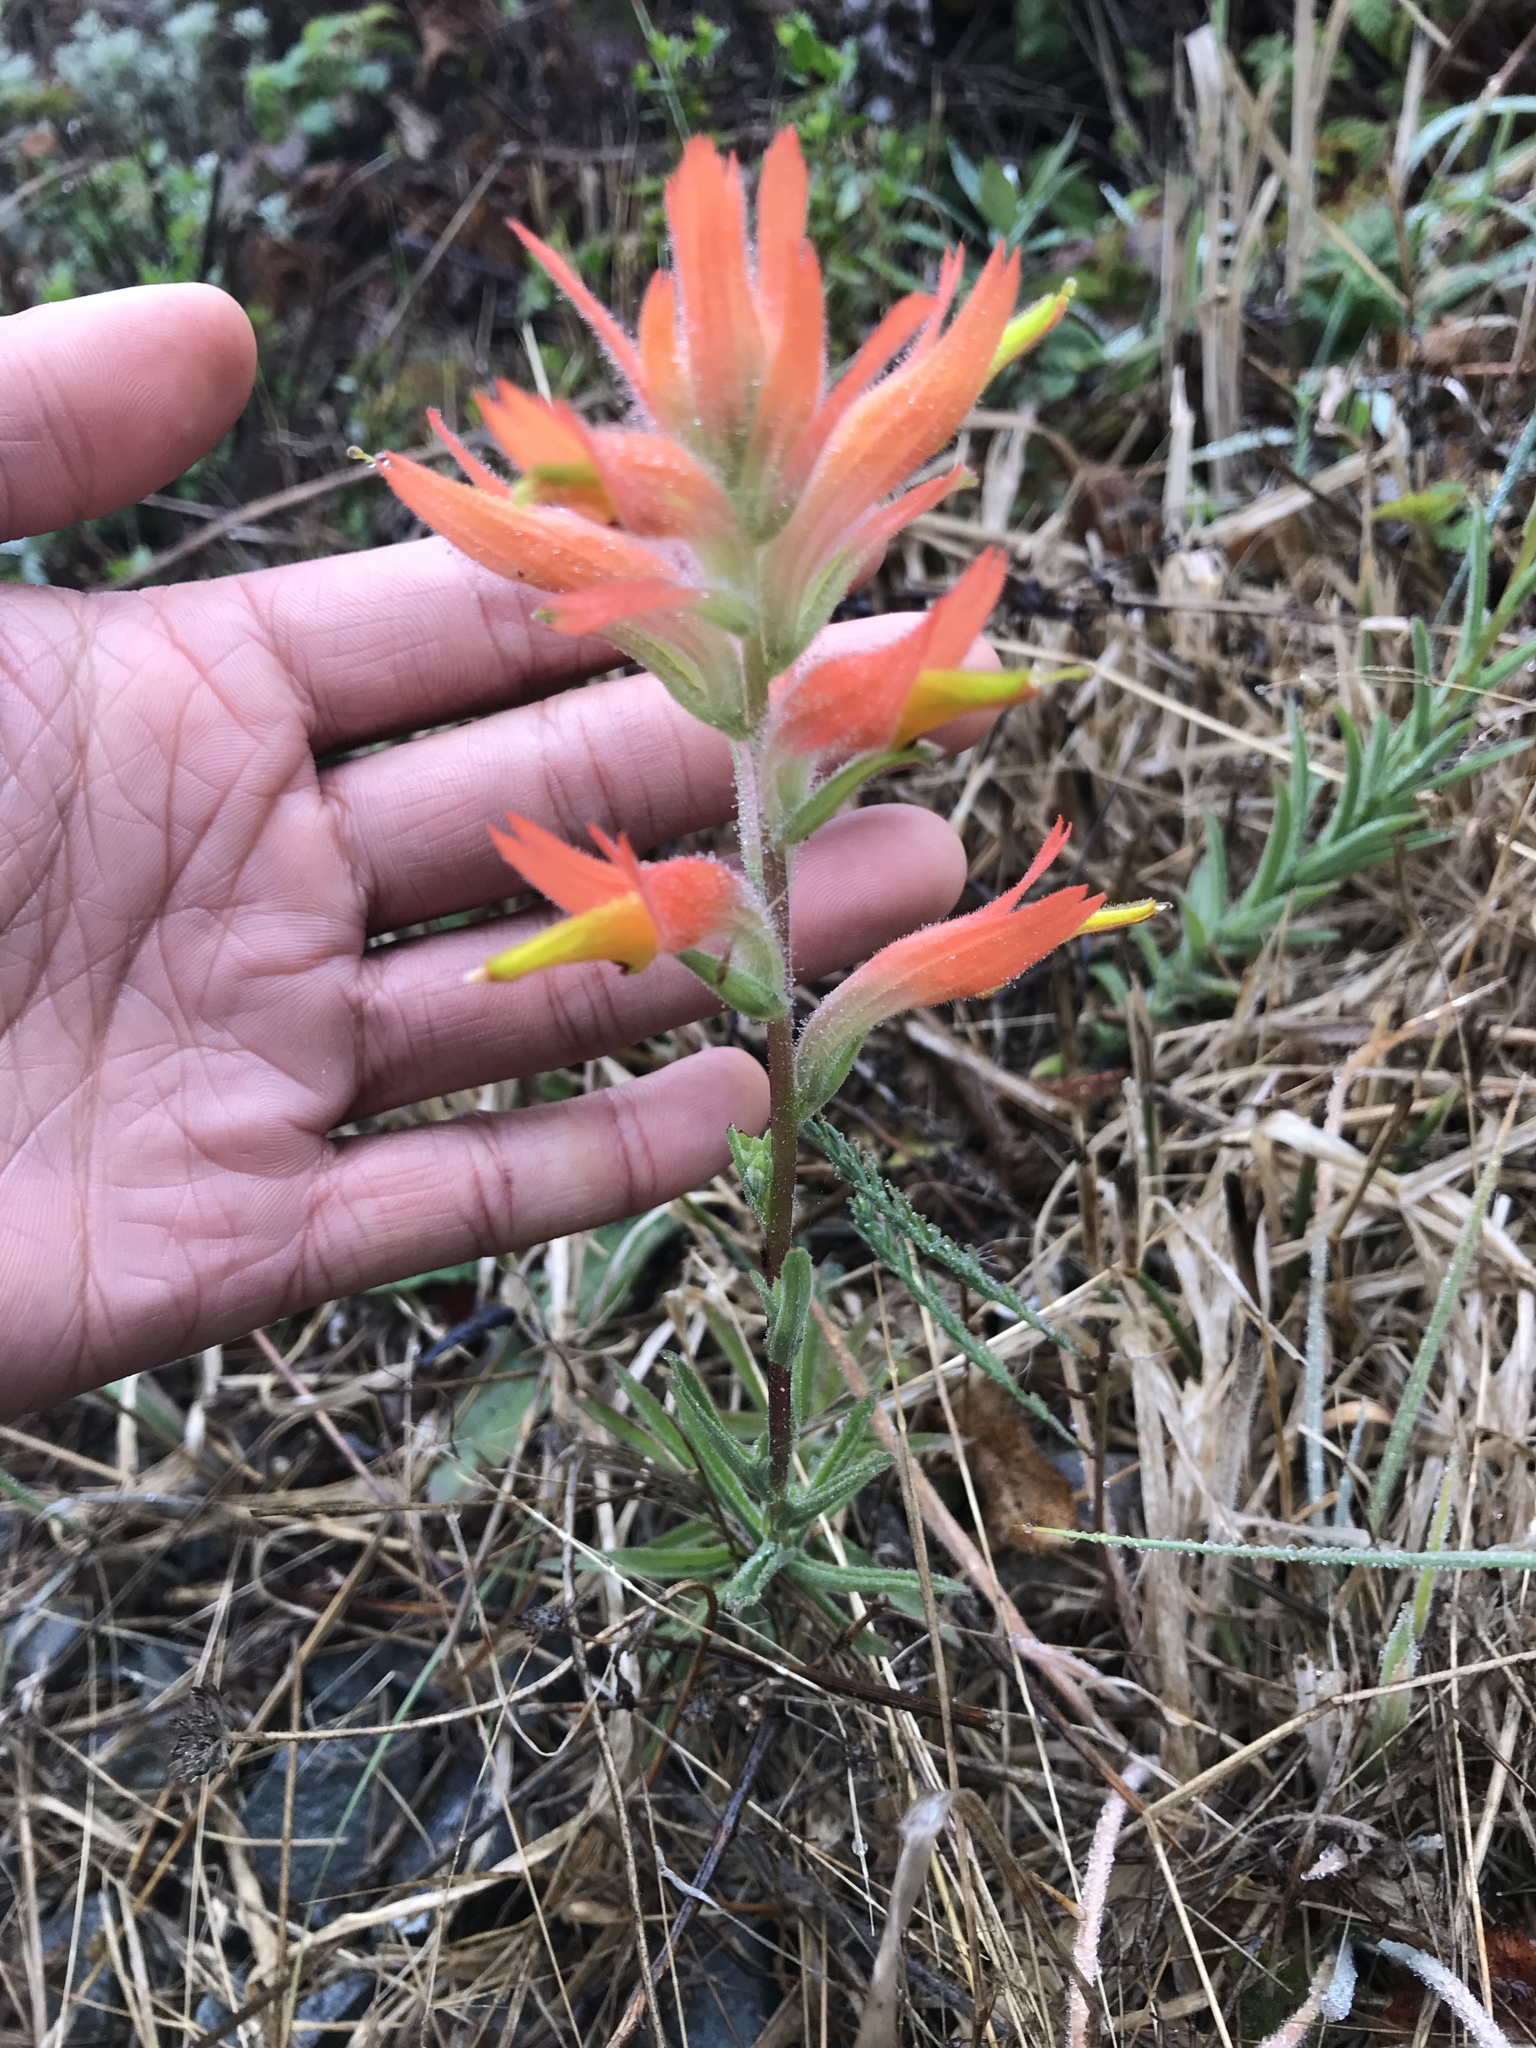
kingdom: Plantae
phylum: Tracheophyta
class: Magnoliopsida
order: Lamiales
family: Orobanchaceae
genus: Castilleja
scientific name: Castilleja subinclusa
